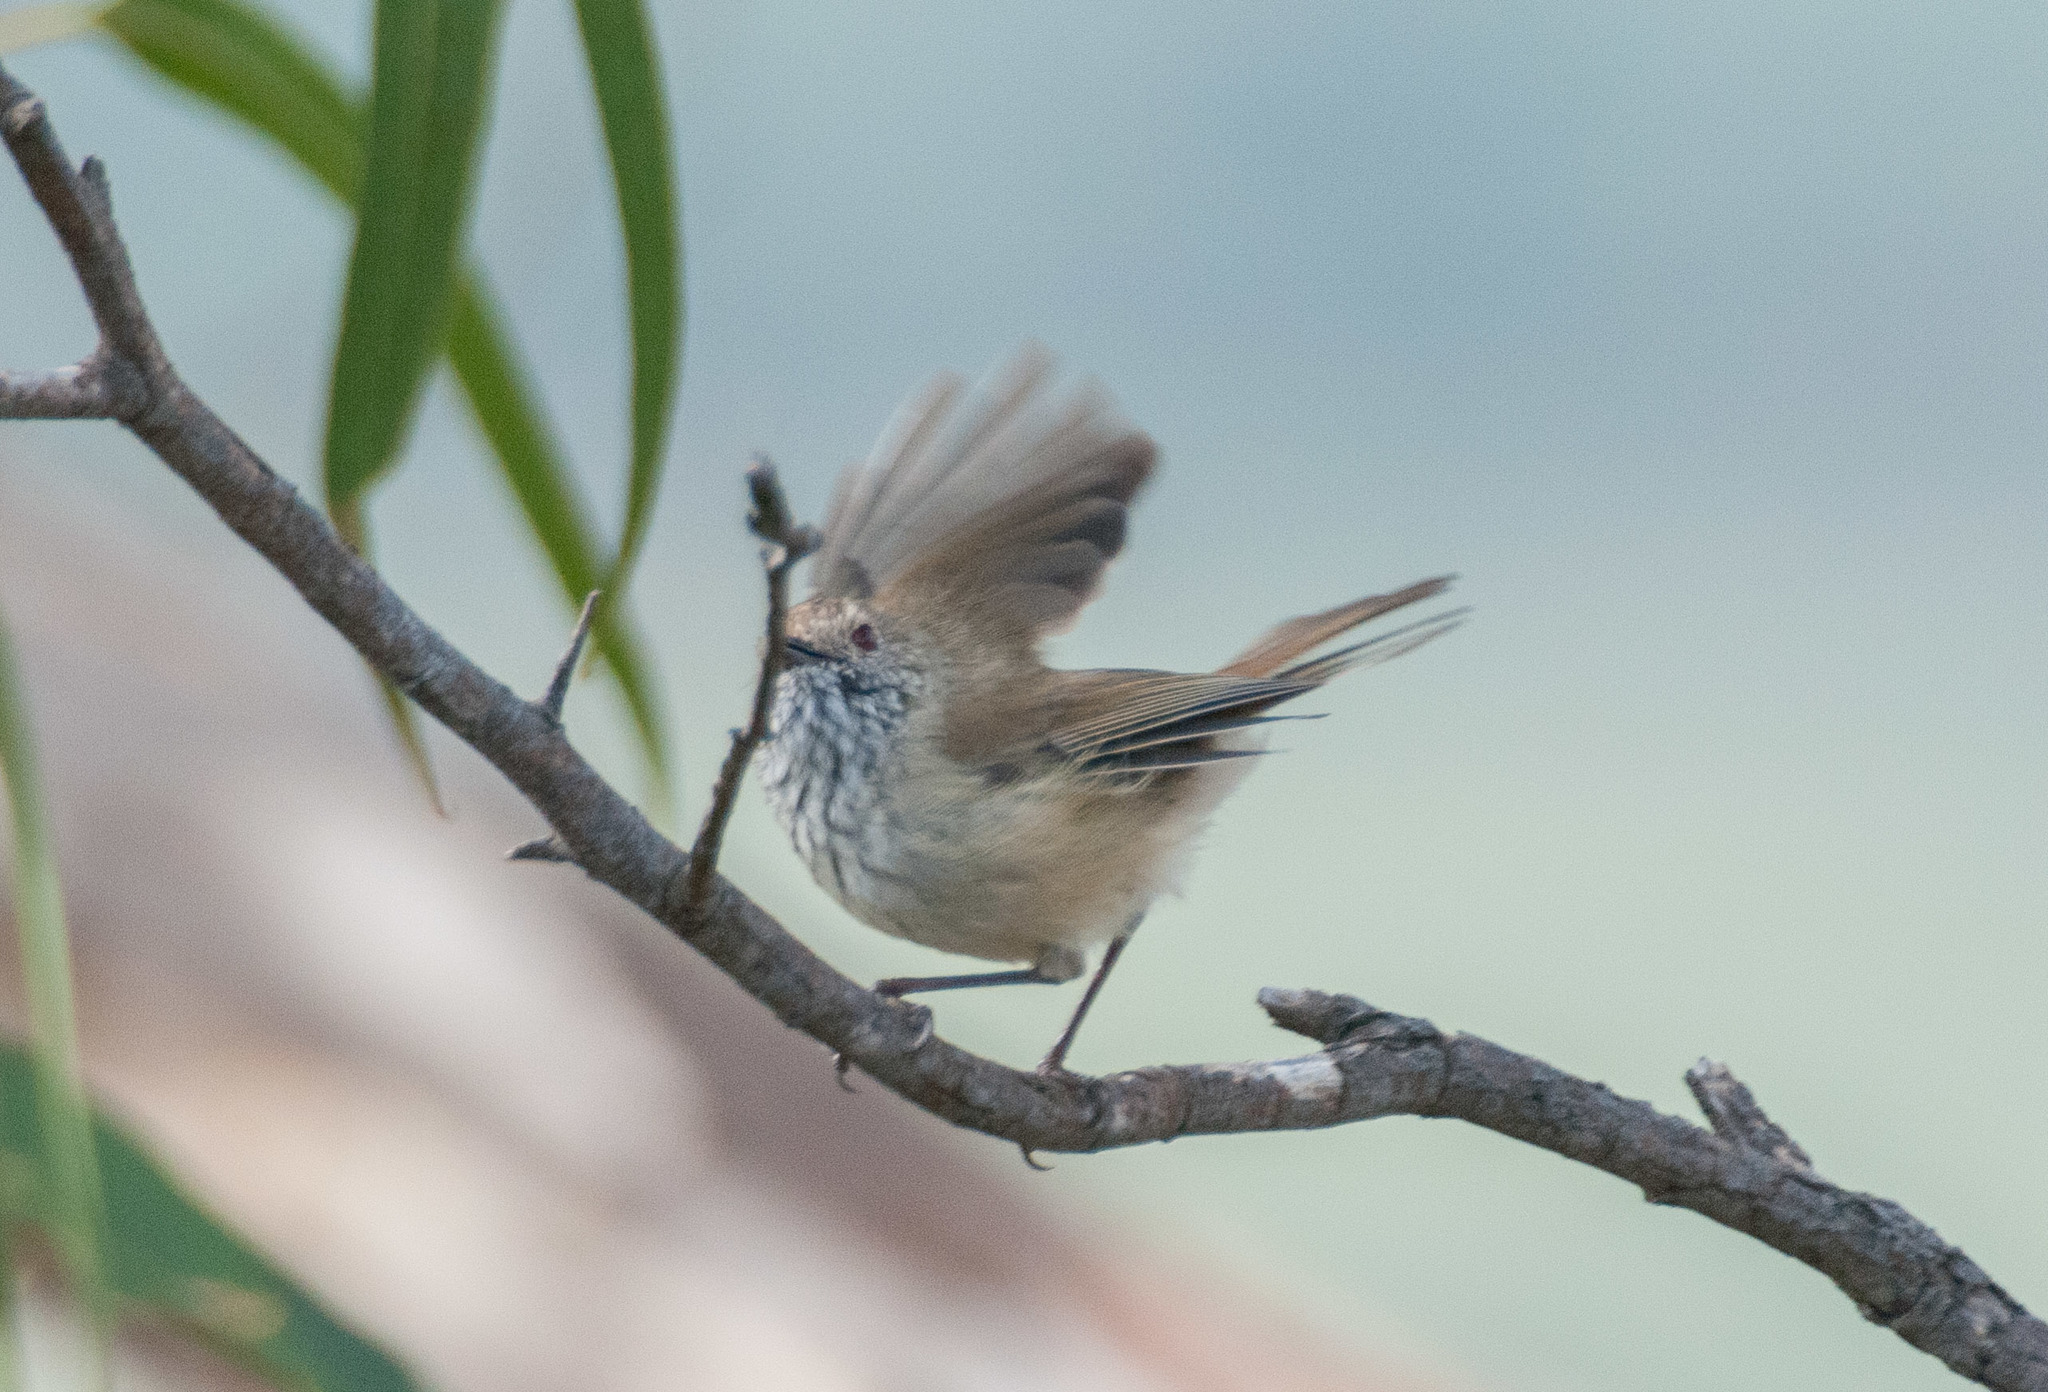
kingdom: Animalia
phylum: Chordata
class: Aves
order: Passeriformes
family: Acanthizidae
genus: Acanthiza
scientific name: Acanthiza pusilla
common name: Brown thornbill
